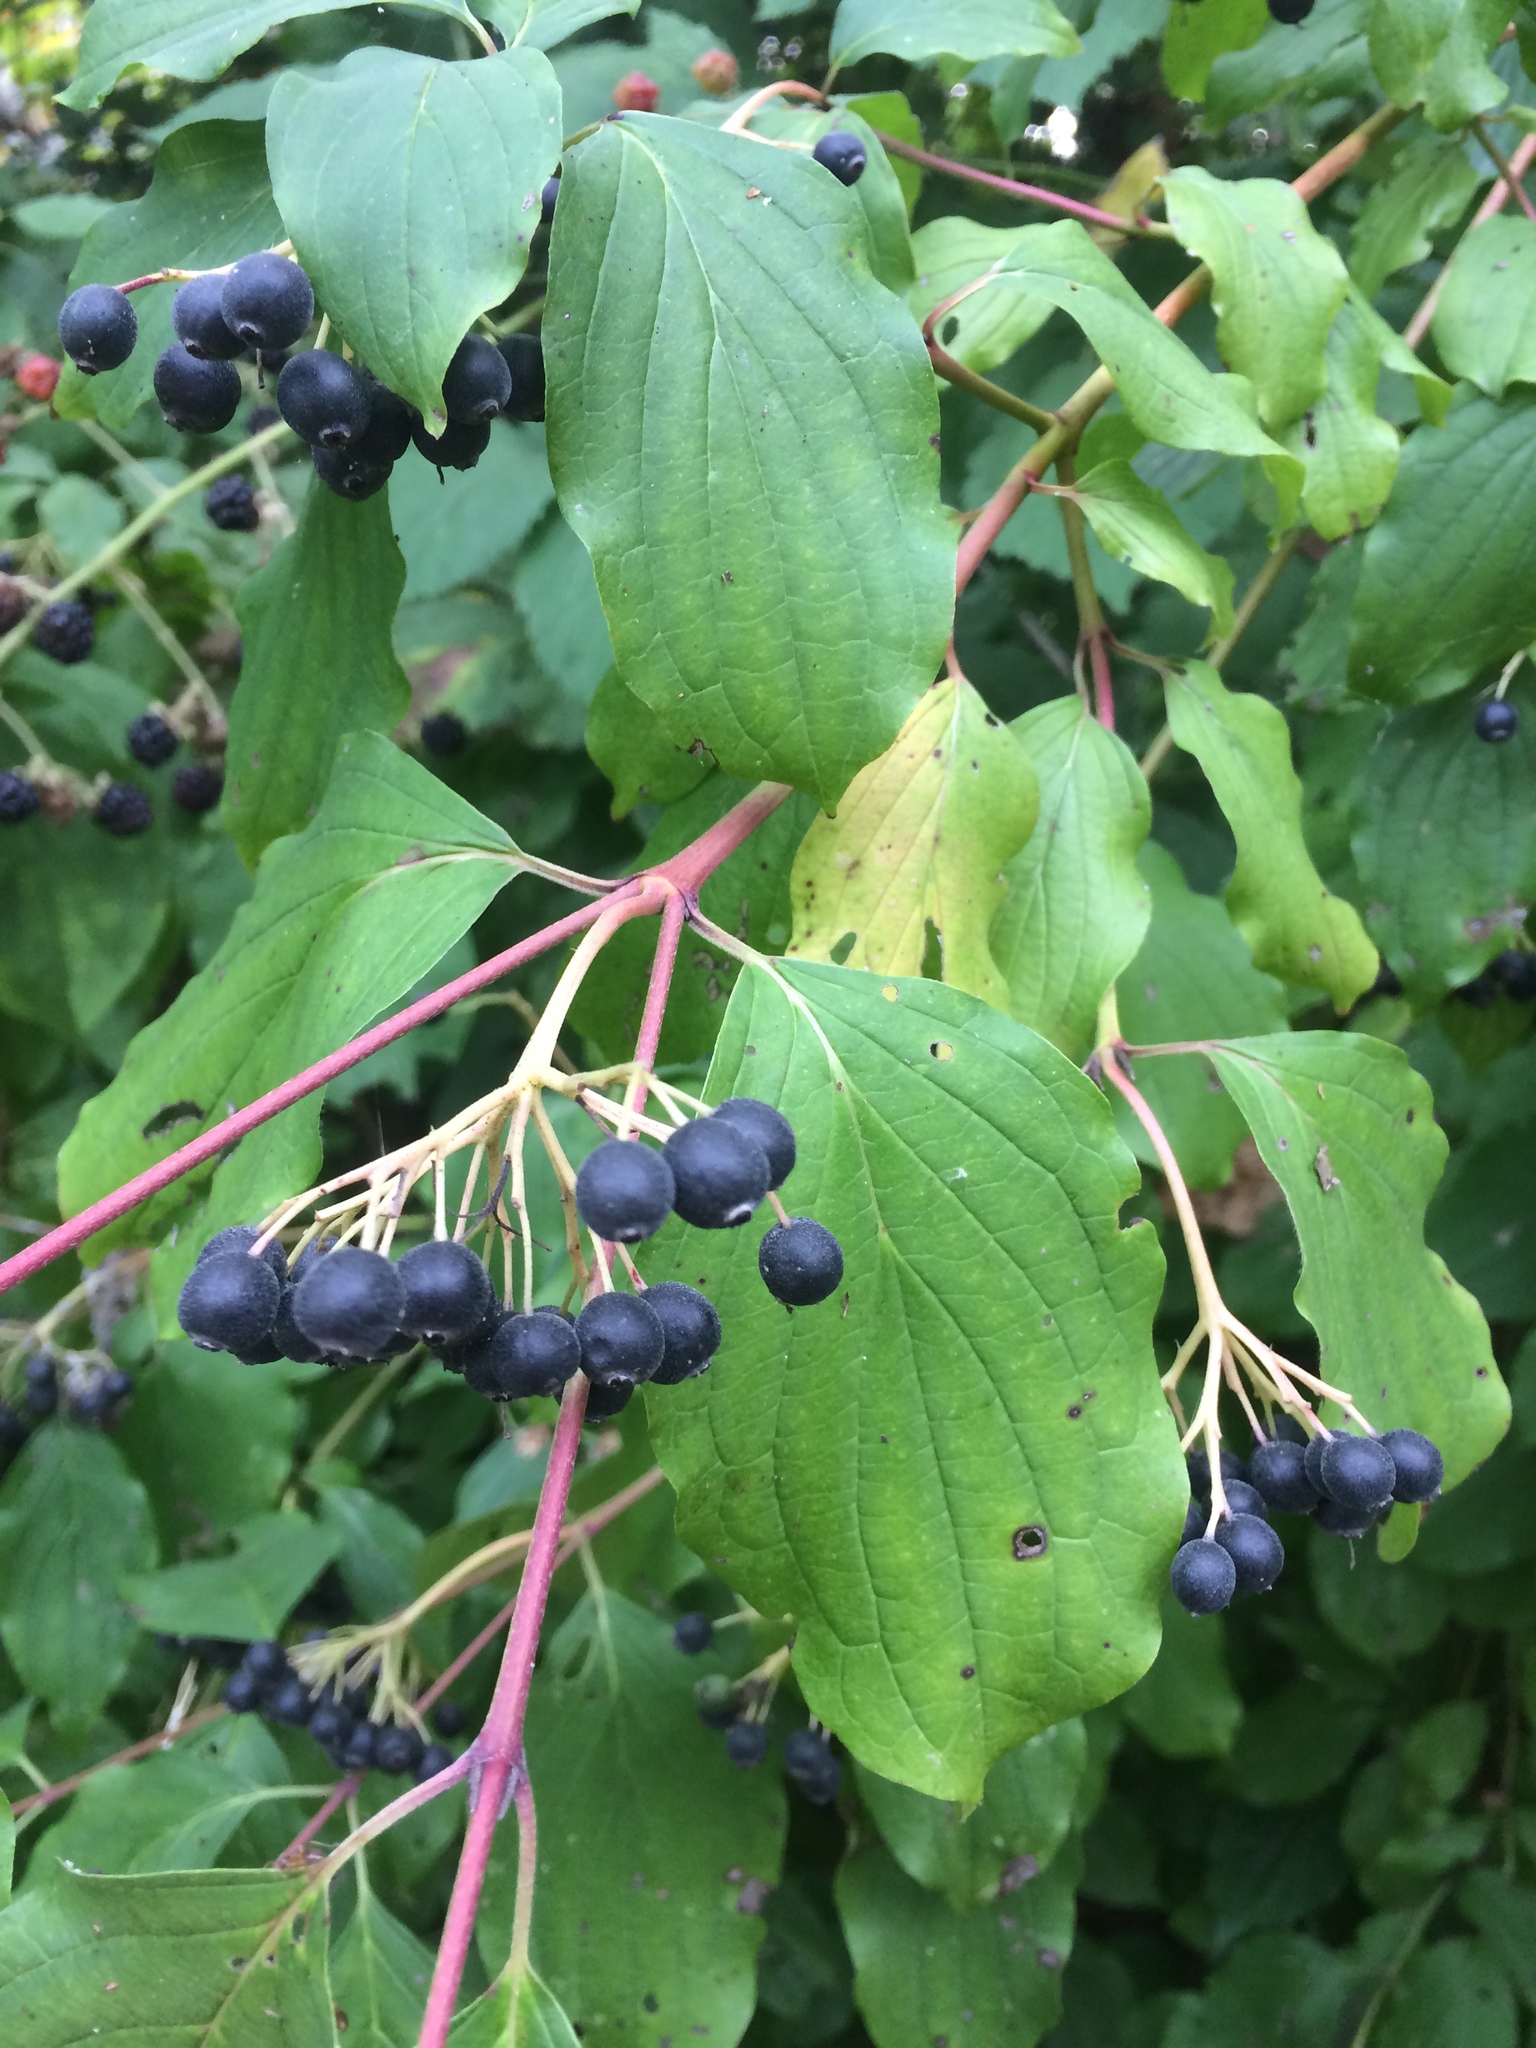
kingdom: Plantae
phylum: Tracheophyta
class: Magnoliopsida
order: Cornales
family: Cornaceae
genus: Cornus
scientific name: Cornus sanguinea
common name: Dogwood
